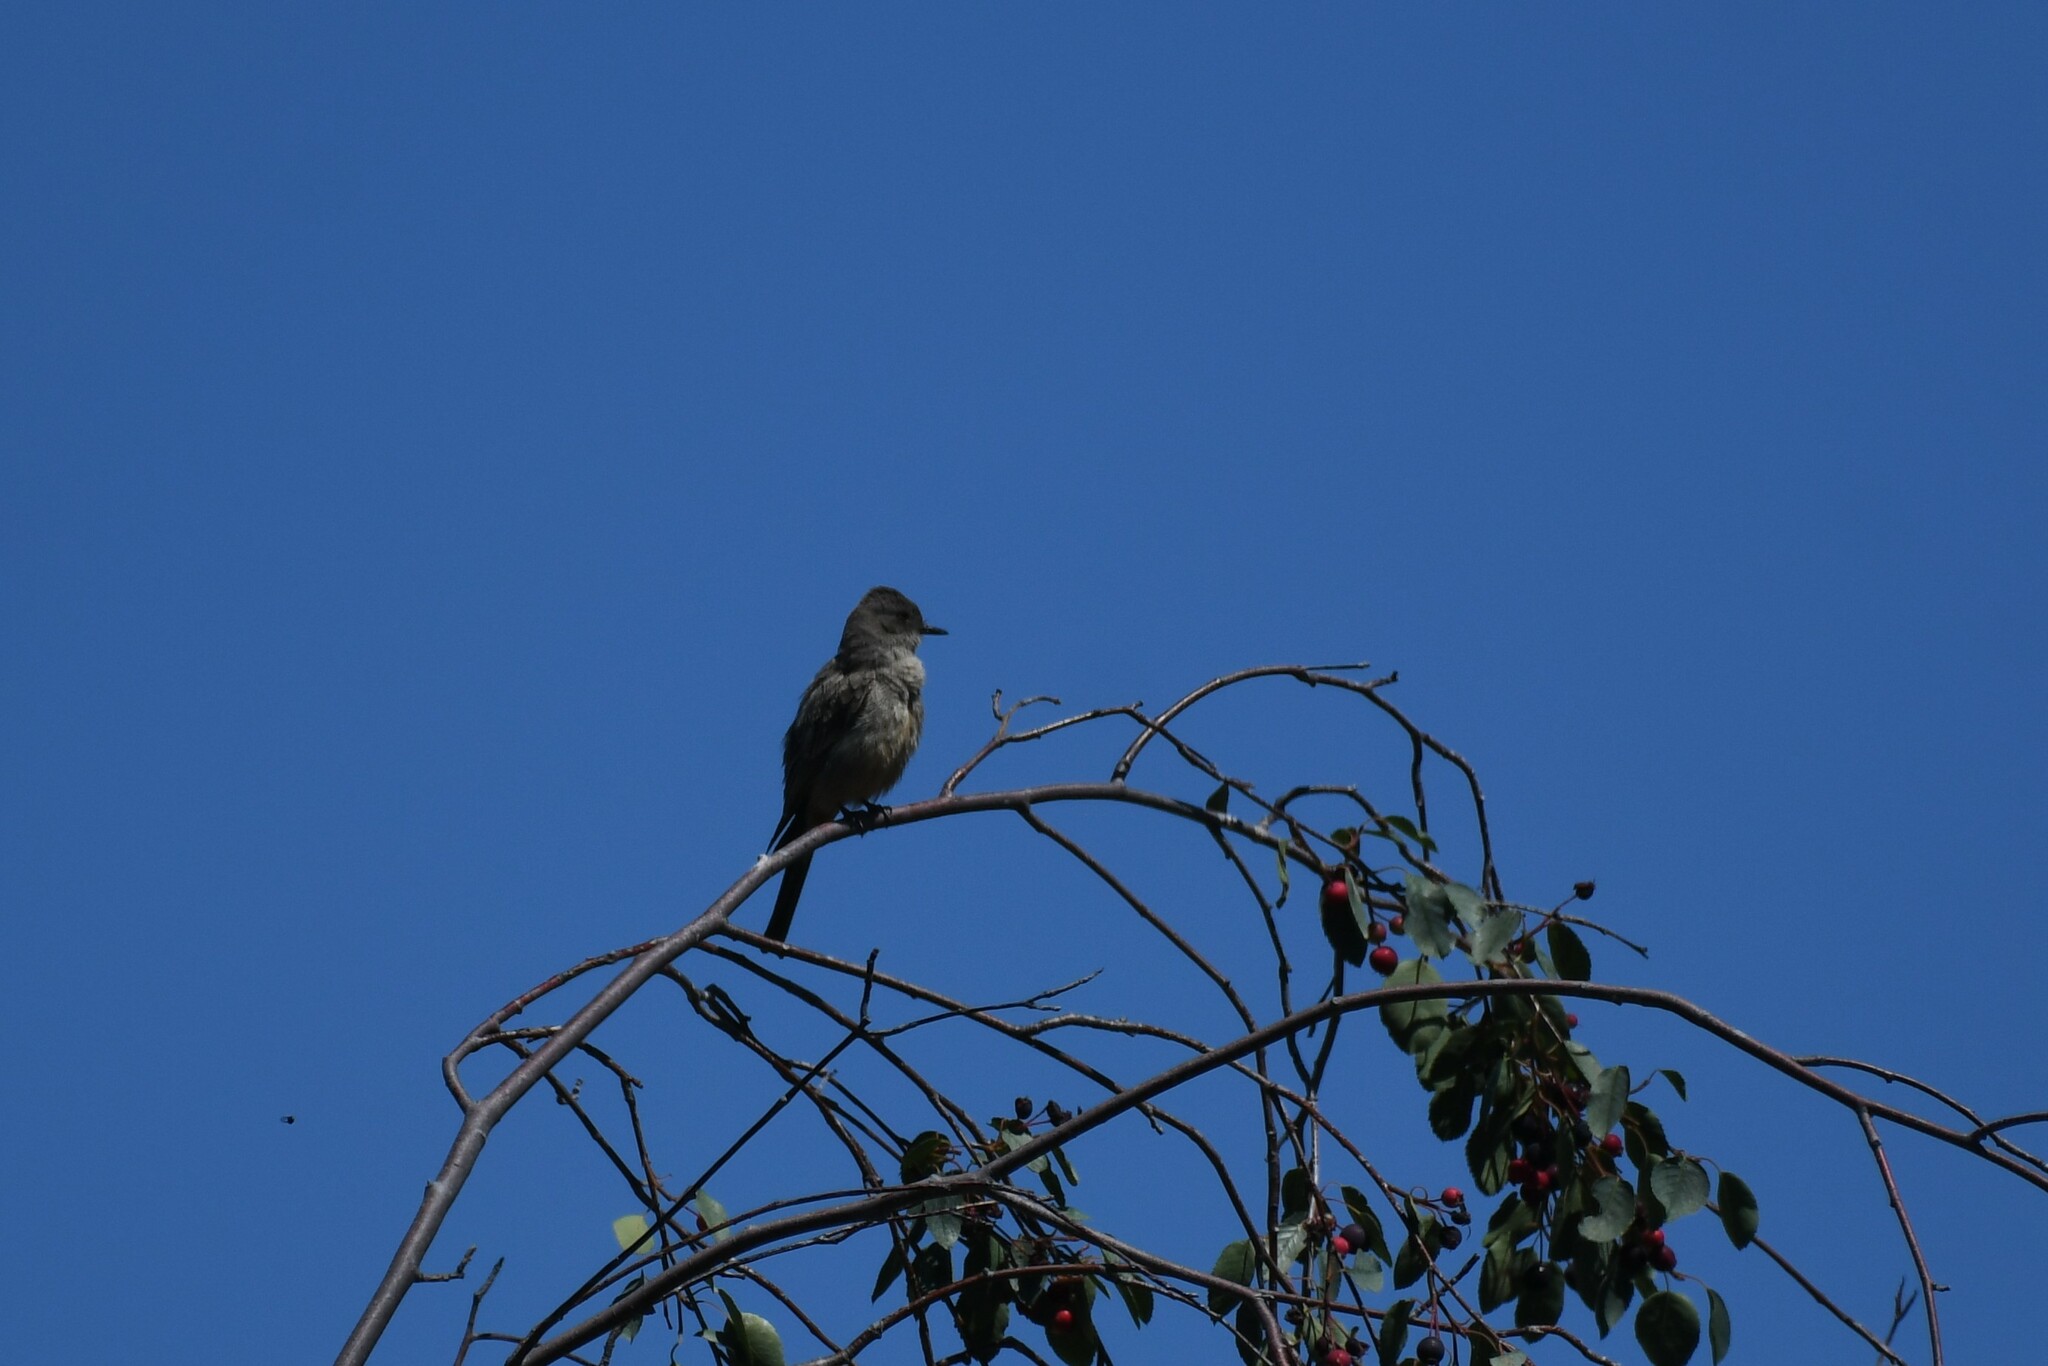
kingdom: Animalia
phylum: Chordata
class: Aves
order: Passeriformes
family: Tyrannidae
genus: Sayornis
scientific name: Sayornis saya
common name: Say's phoebe
